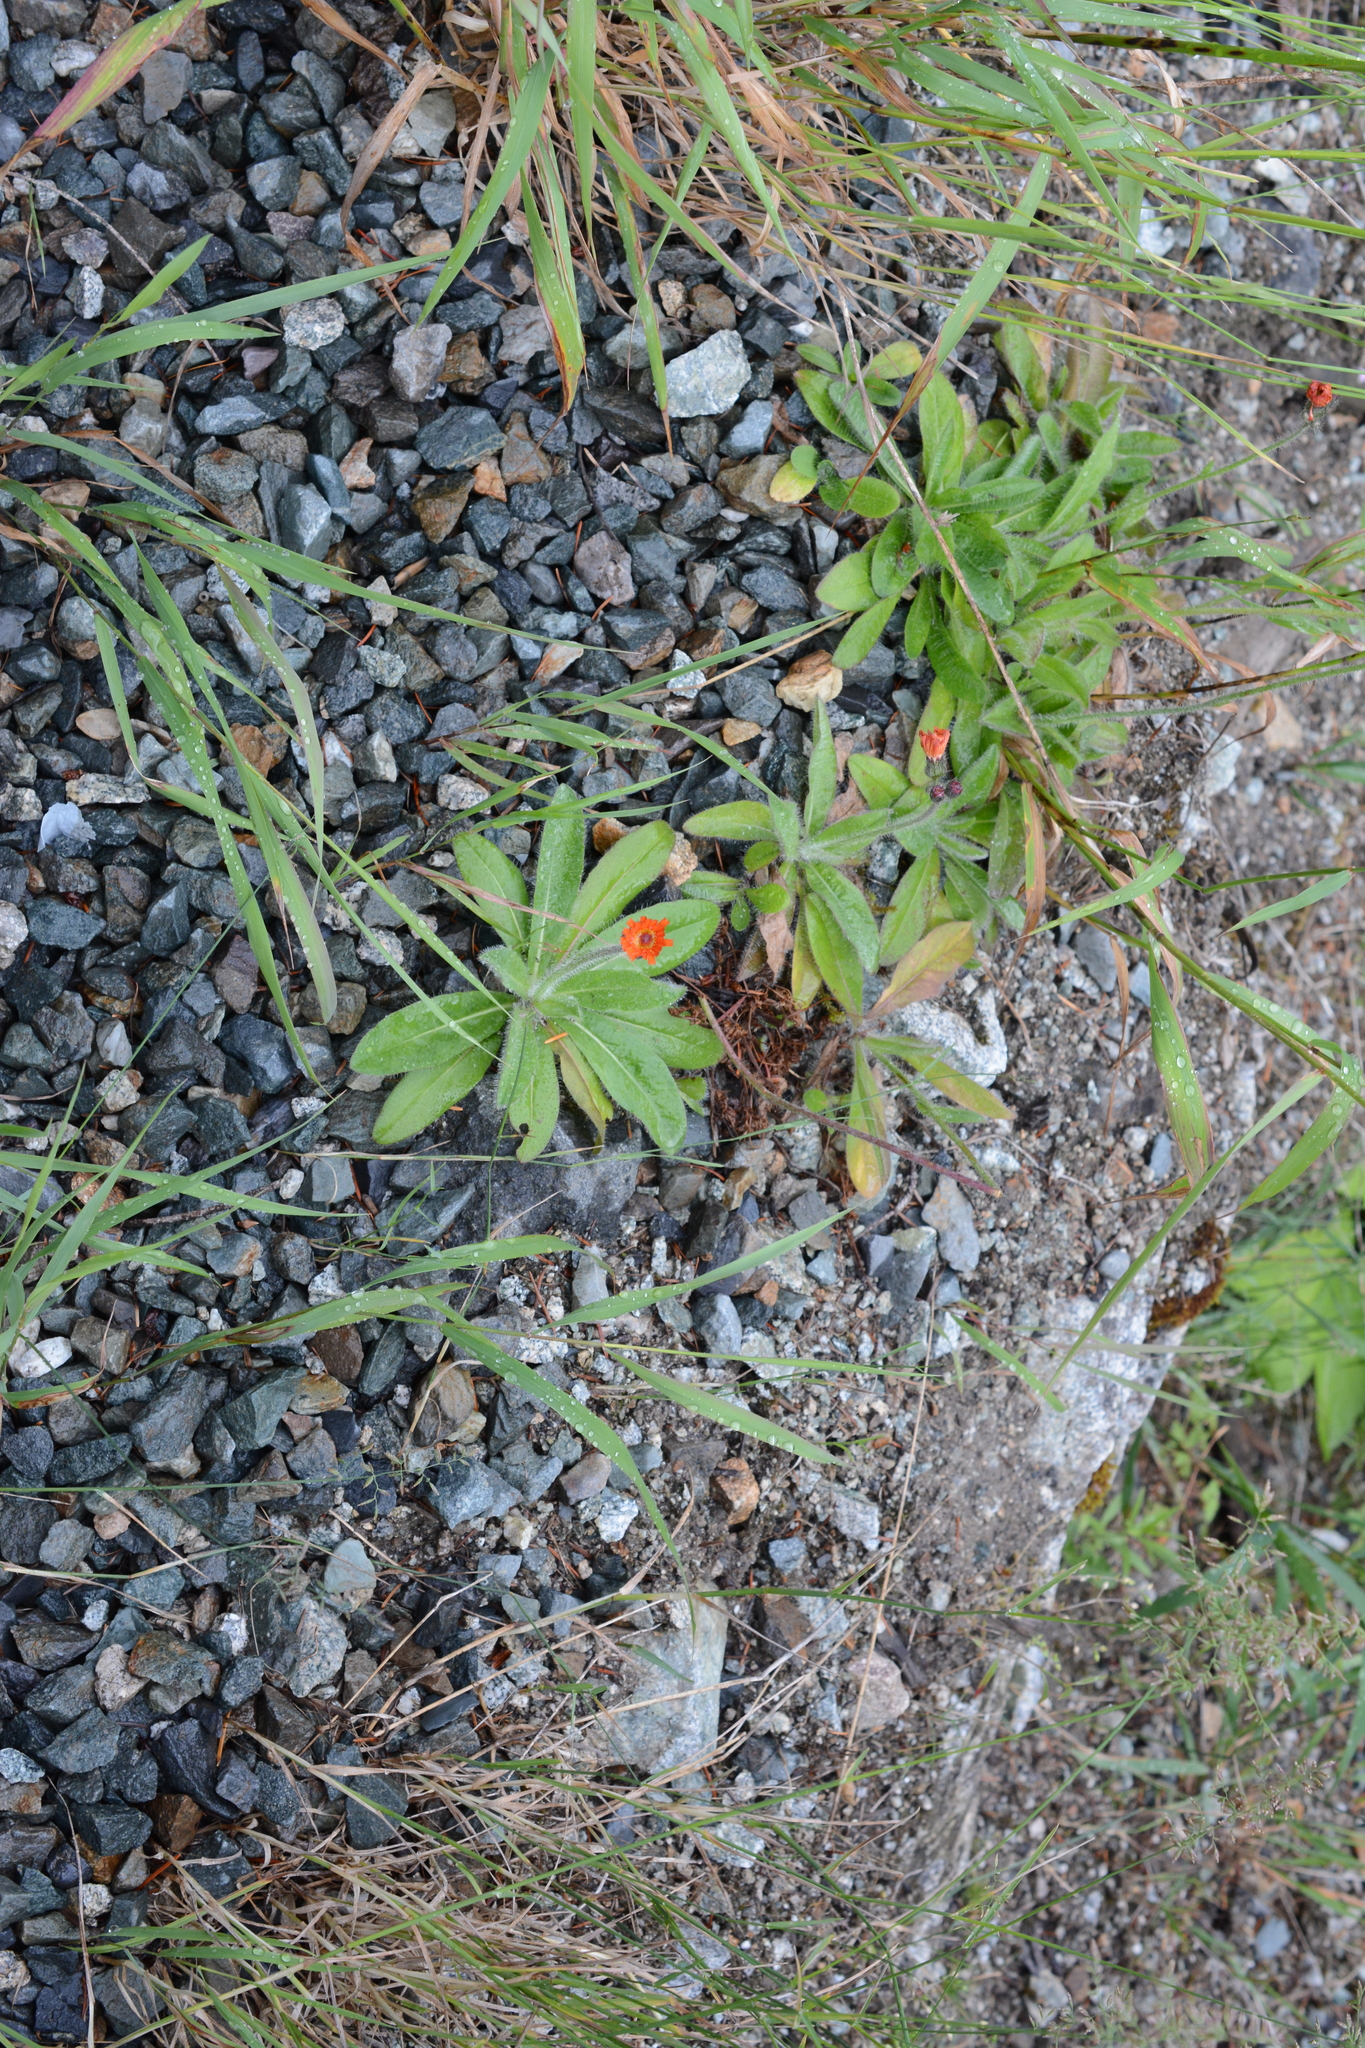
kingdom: Plantae
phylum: Tracheophyta
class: Magnoliopsida
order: Asterales
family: Asteraceae
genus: Pilosella
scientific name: Pilosella aurantiaca
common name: Fox-and-cubs
